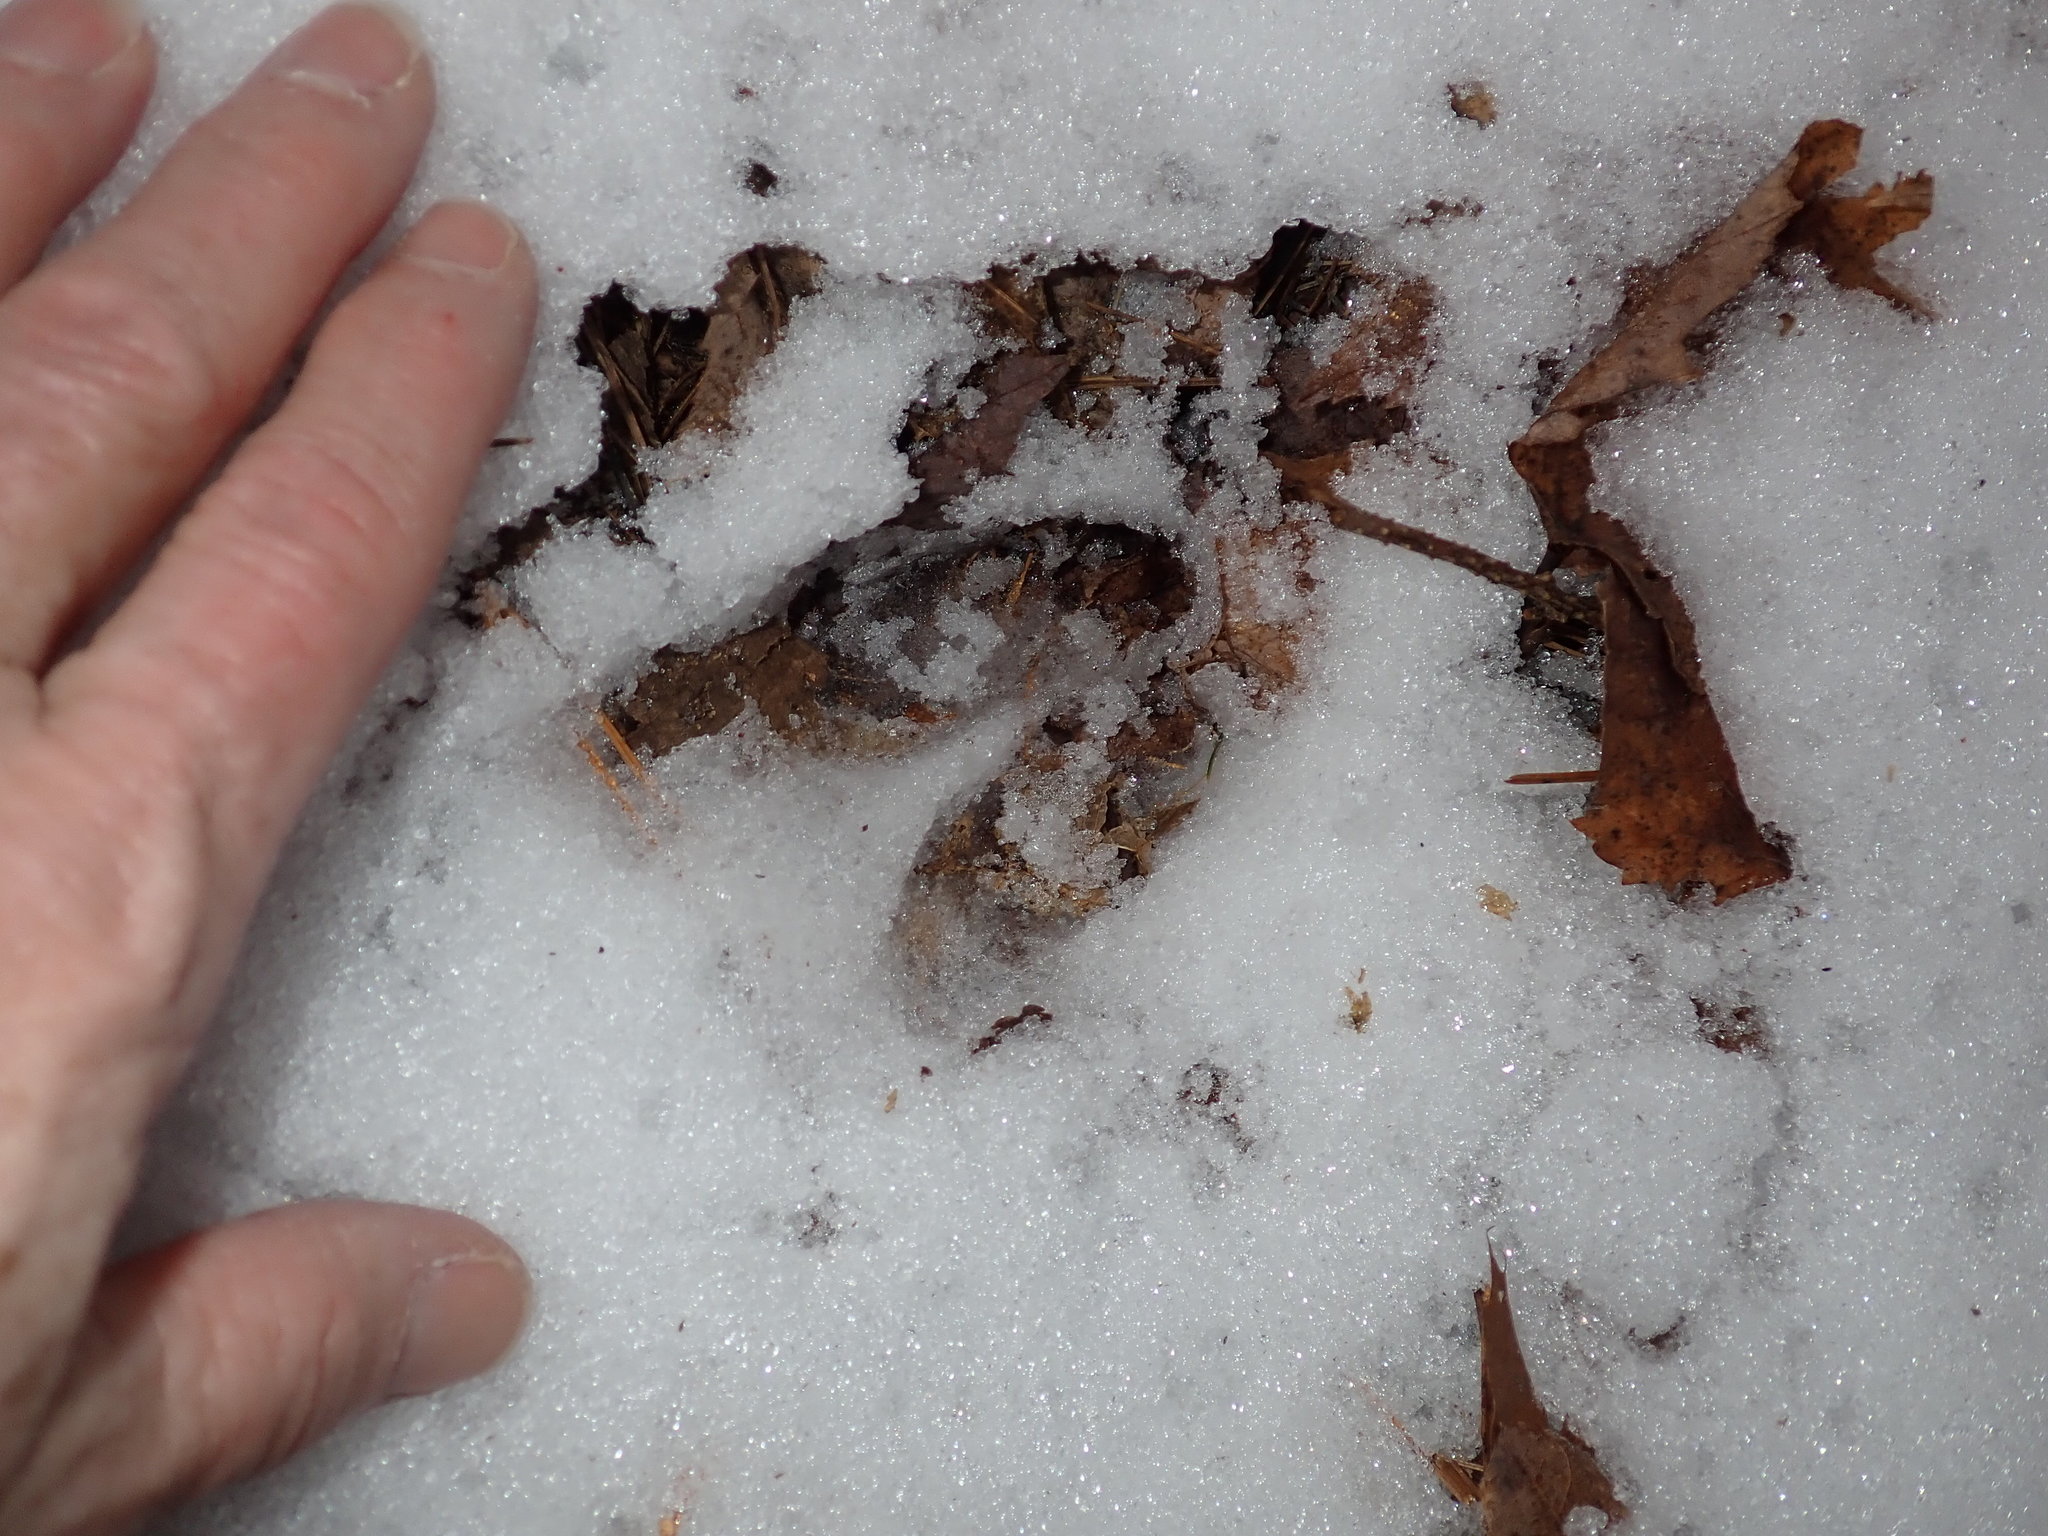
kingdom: Animalia
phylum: Chordata
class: Mammalia
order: Artiodactyla
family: Cervidae
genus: Odocoileus
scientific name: Odocoileus virginianus
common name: White-tailed deer
